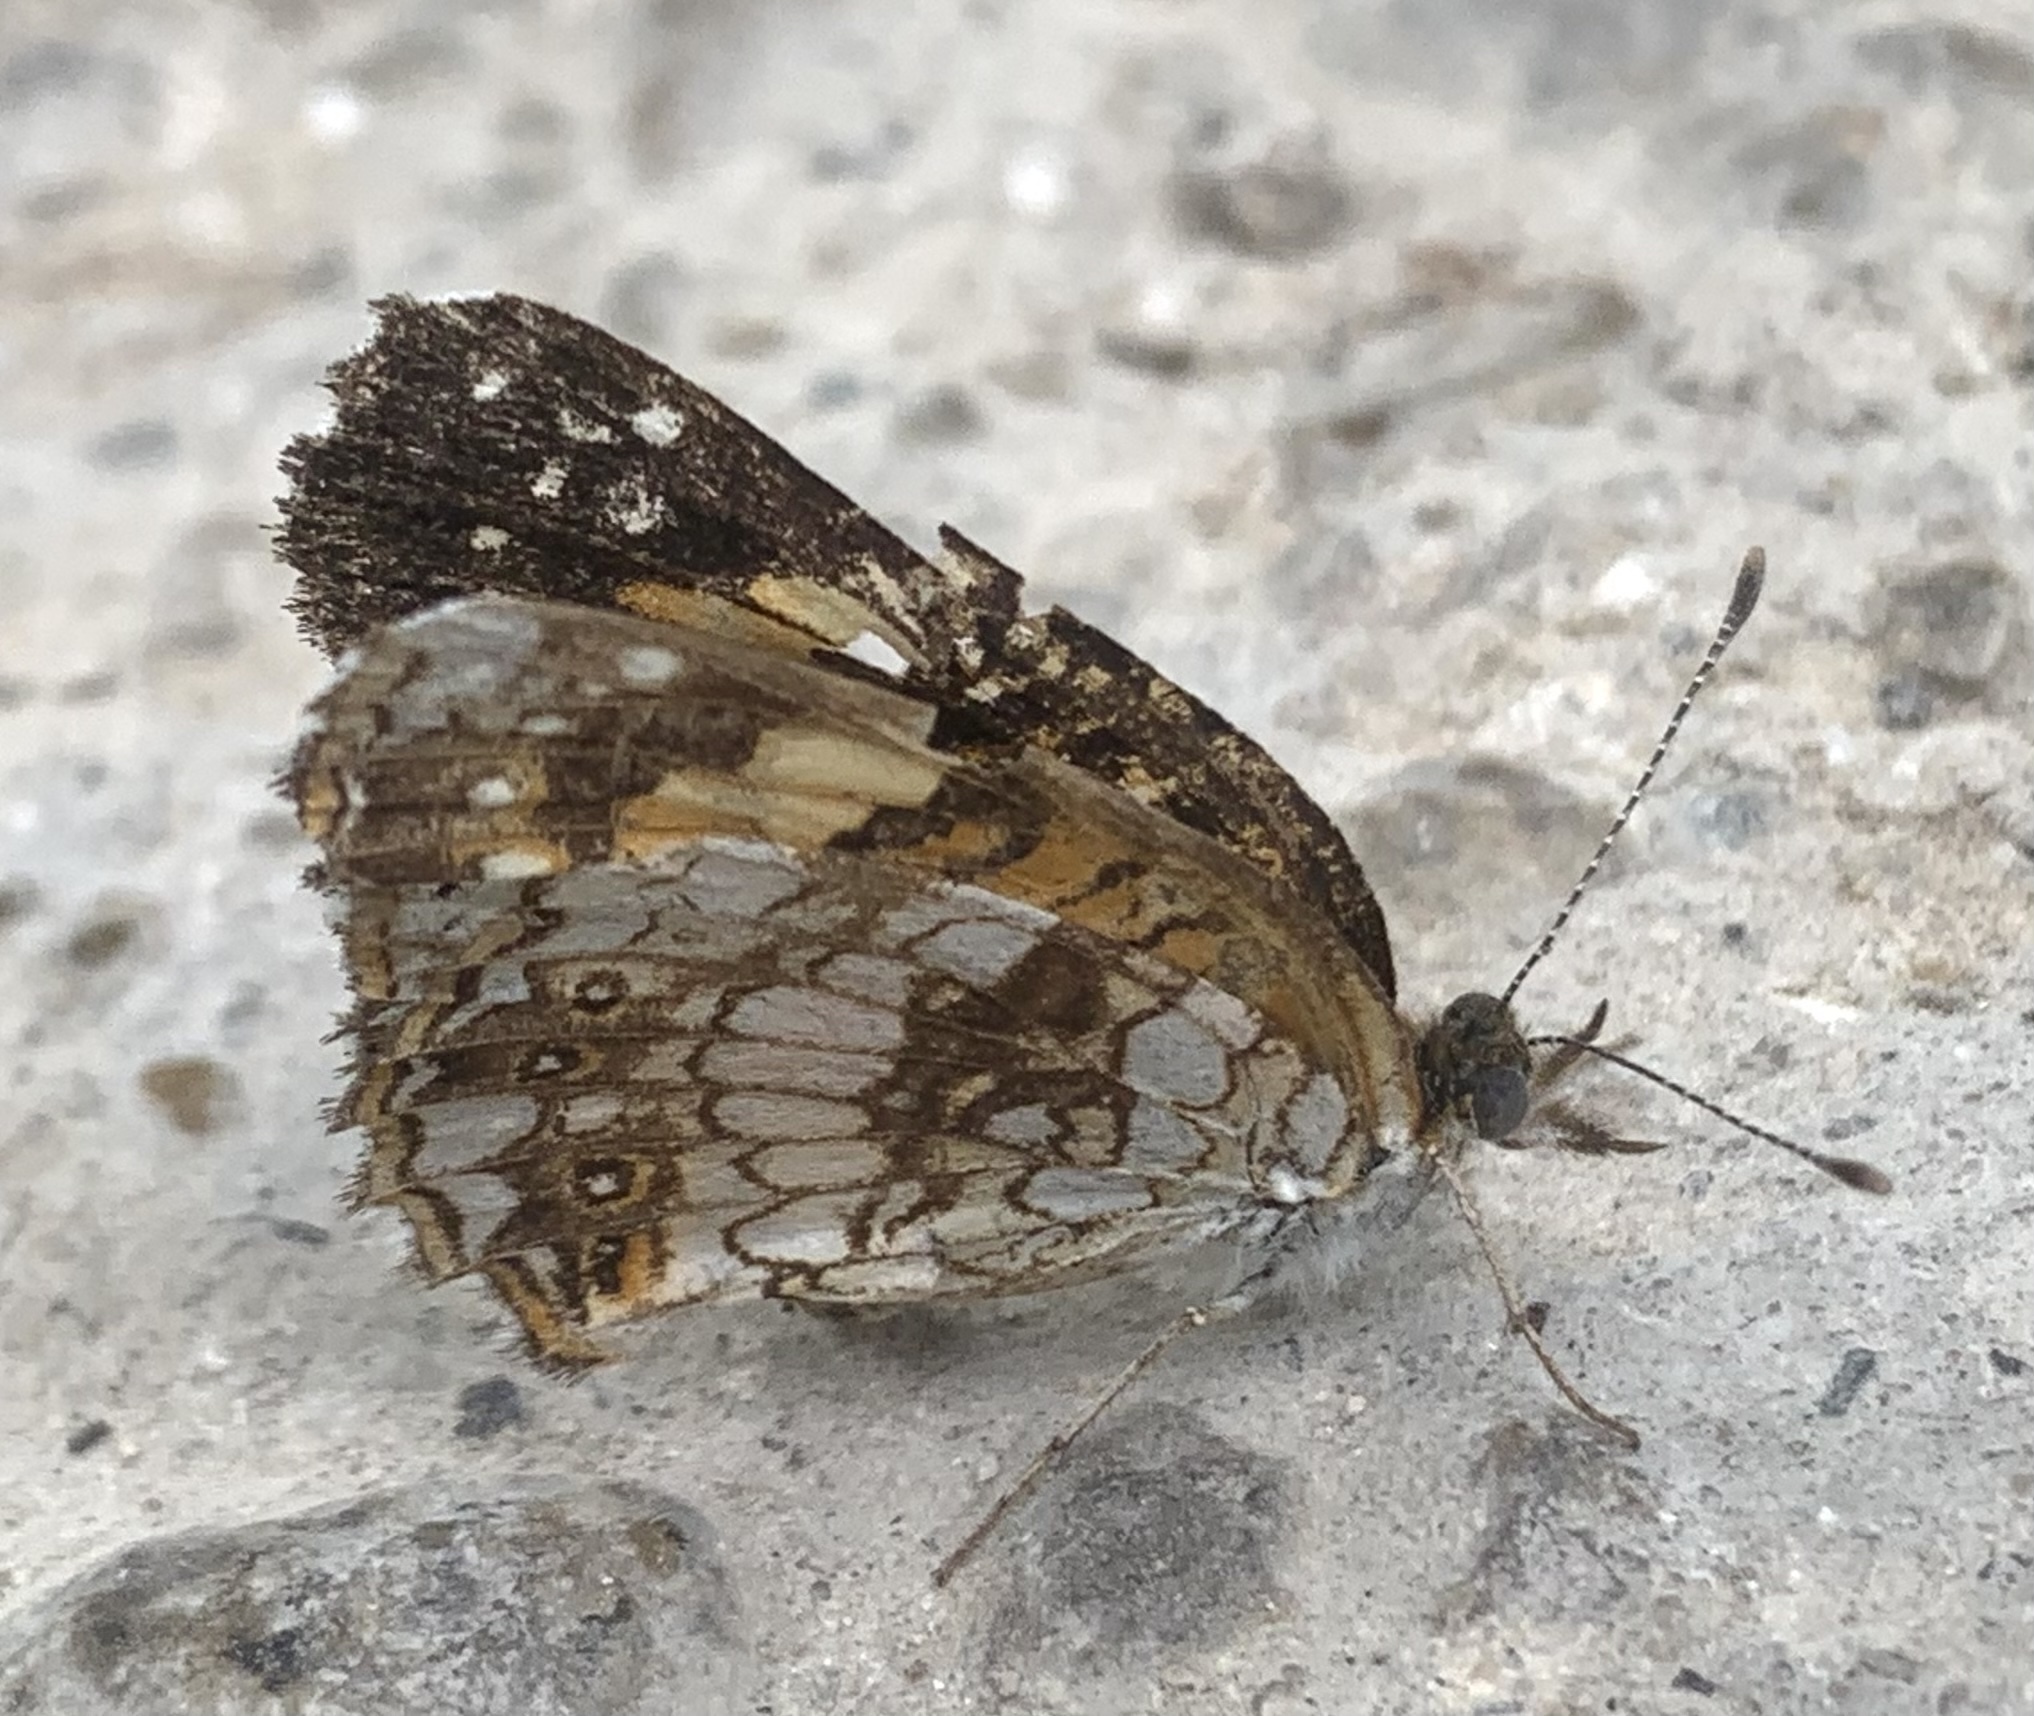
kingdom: Animalia
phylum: Arthropoda
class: Insecta
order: Lepidoptera
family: Nymphalidae
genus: Chlosyne
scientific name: Chlosyne nycteis
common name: Silvery checkerspot
